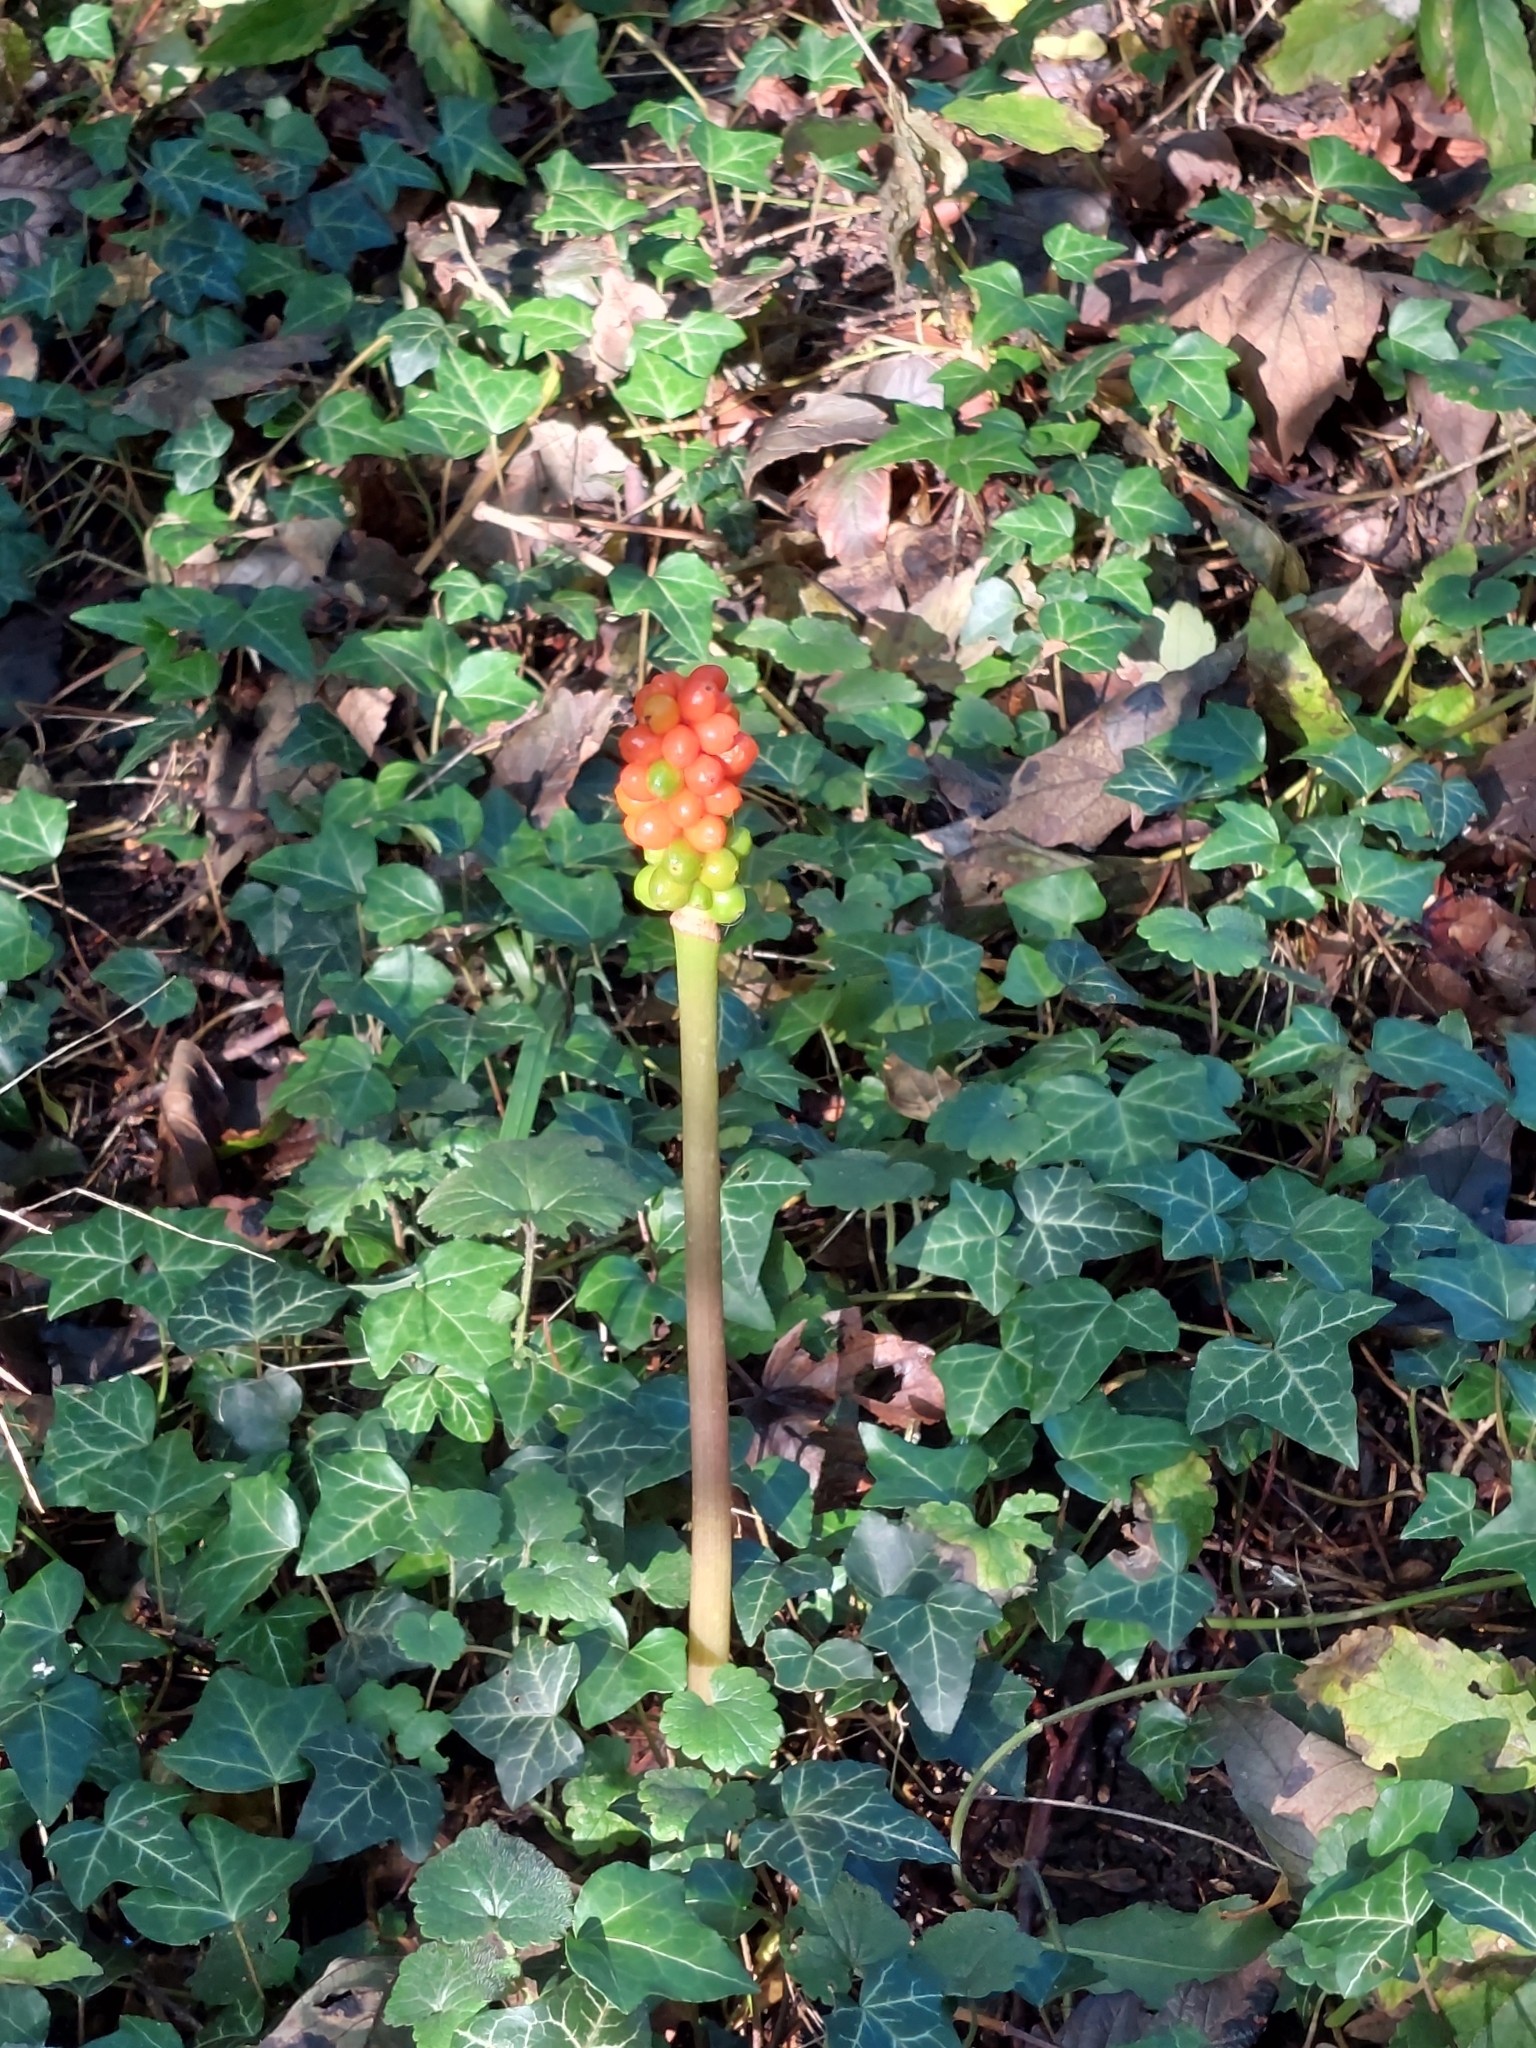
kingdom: Plantae
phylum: Tracheophyta
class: Liliopsida
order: Alismatales
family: Araceae
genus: Arum
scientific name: Arum maculatum
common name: Lords-and-ladies
